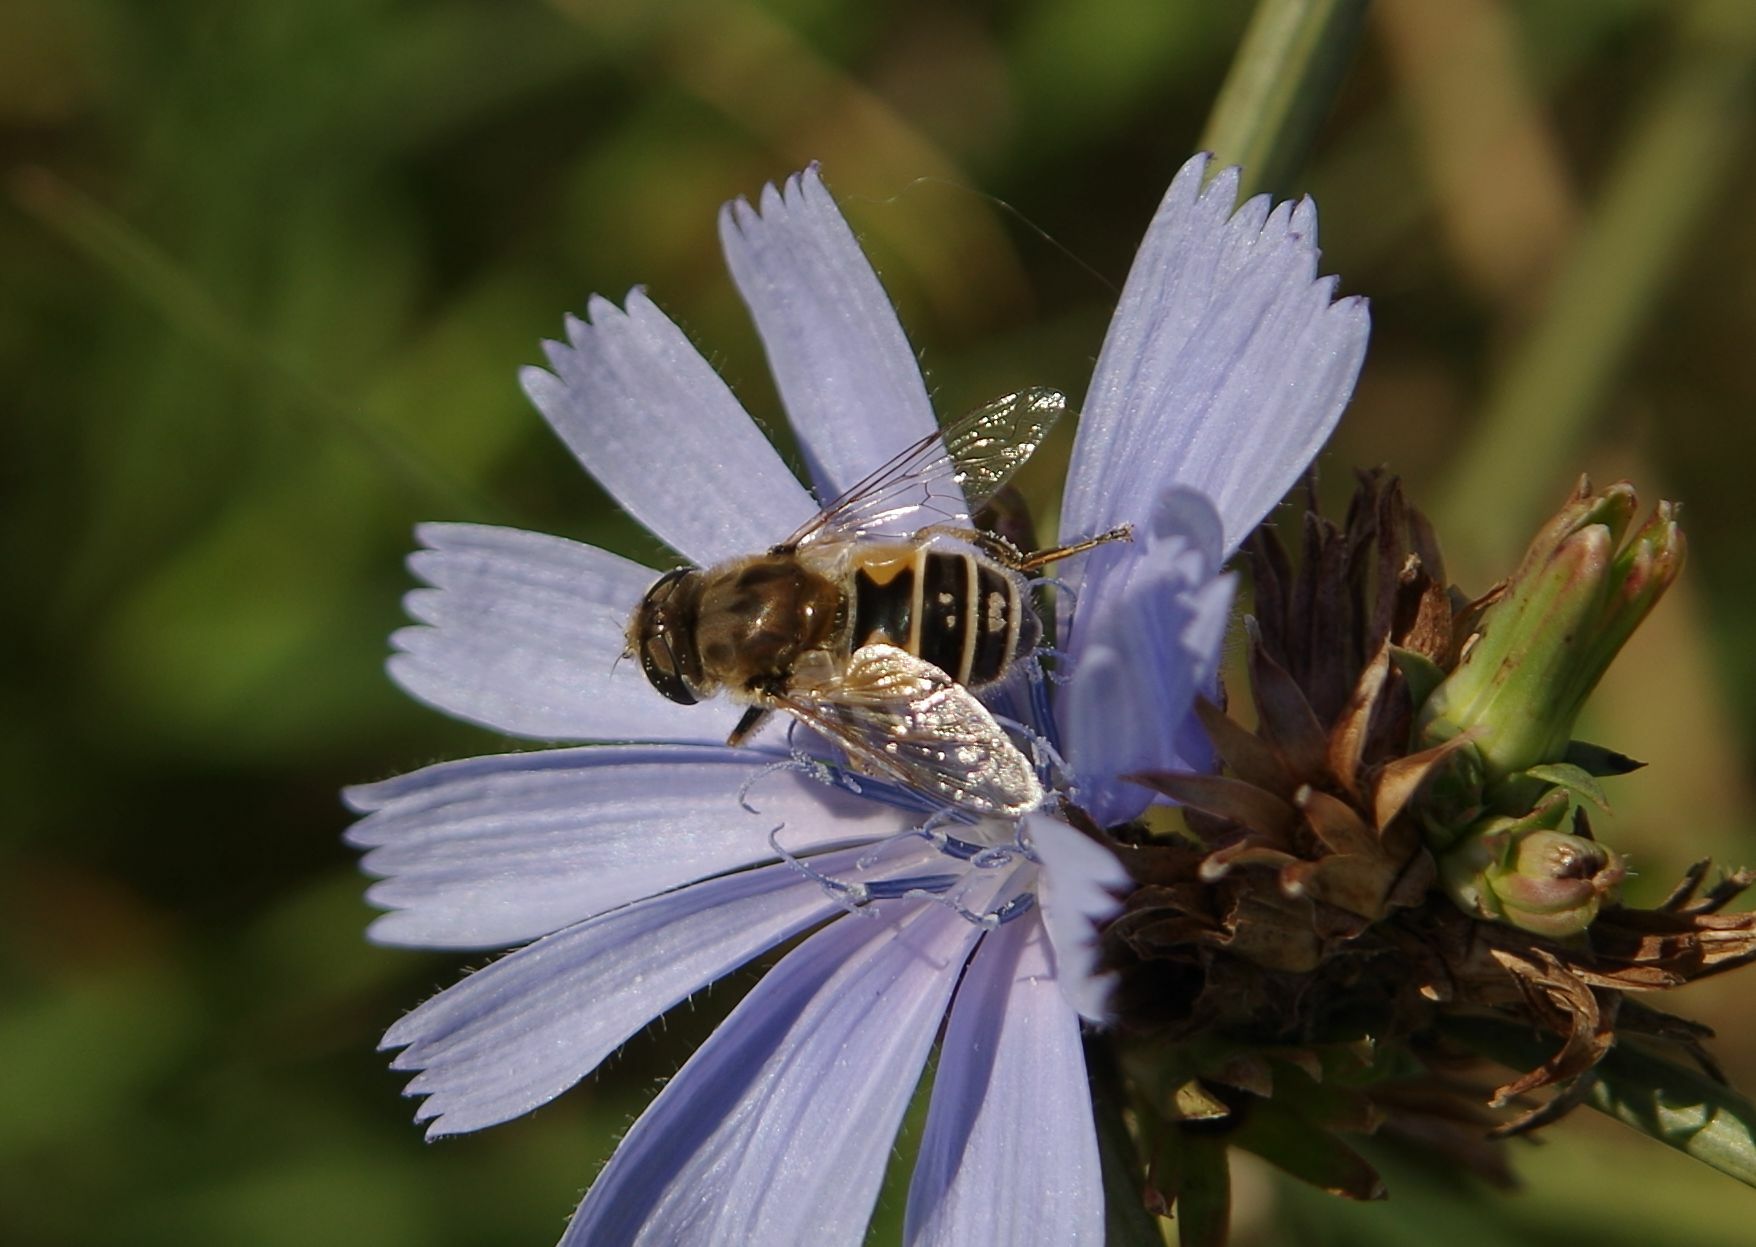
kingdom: Animalia
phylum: Arthropoda
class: Insecta
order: Diptera
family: Syrphidae
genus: Eristalis
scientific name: Eristalis arbustorum
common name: Hover fly
